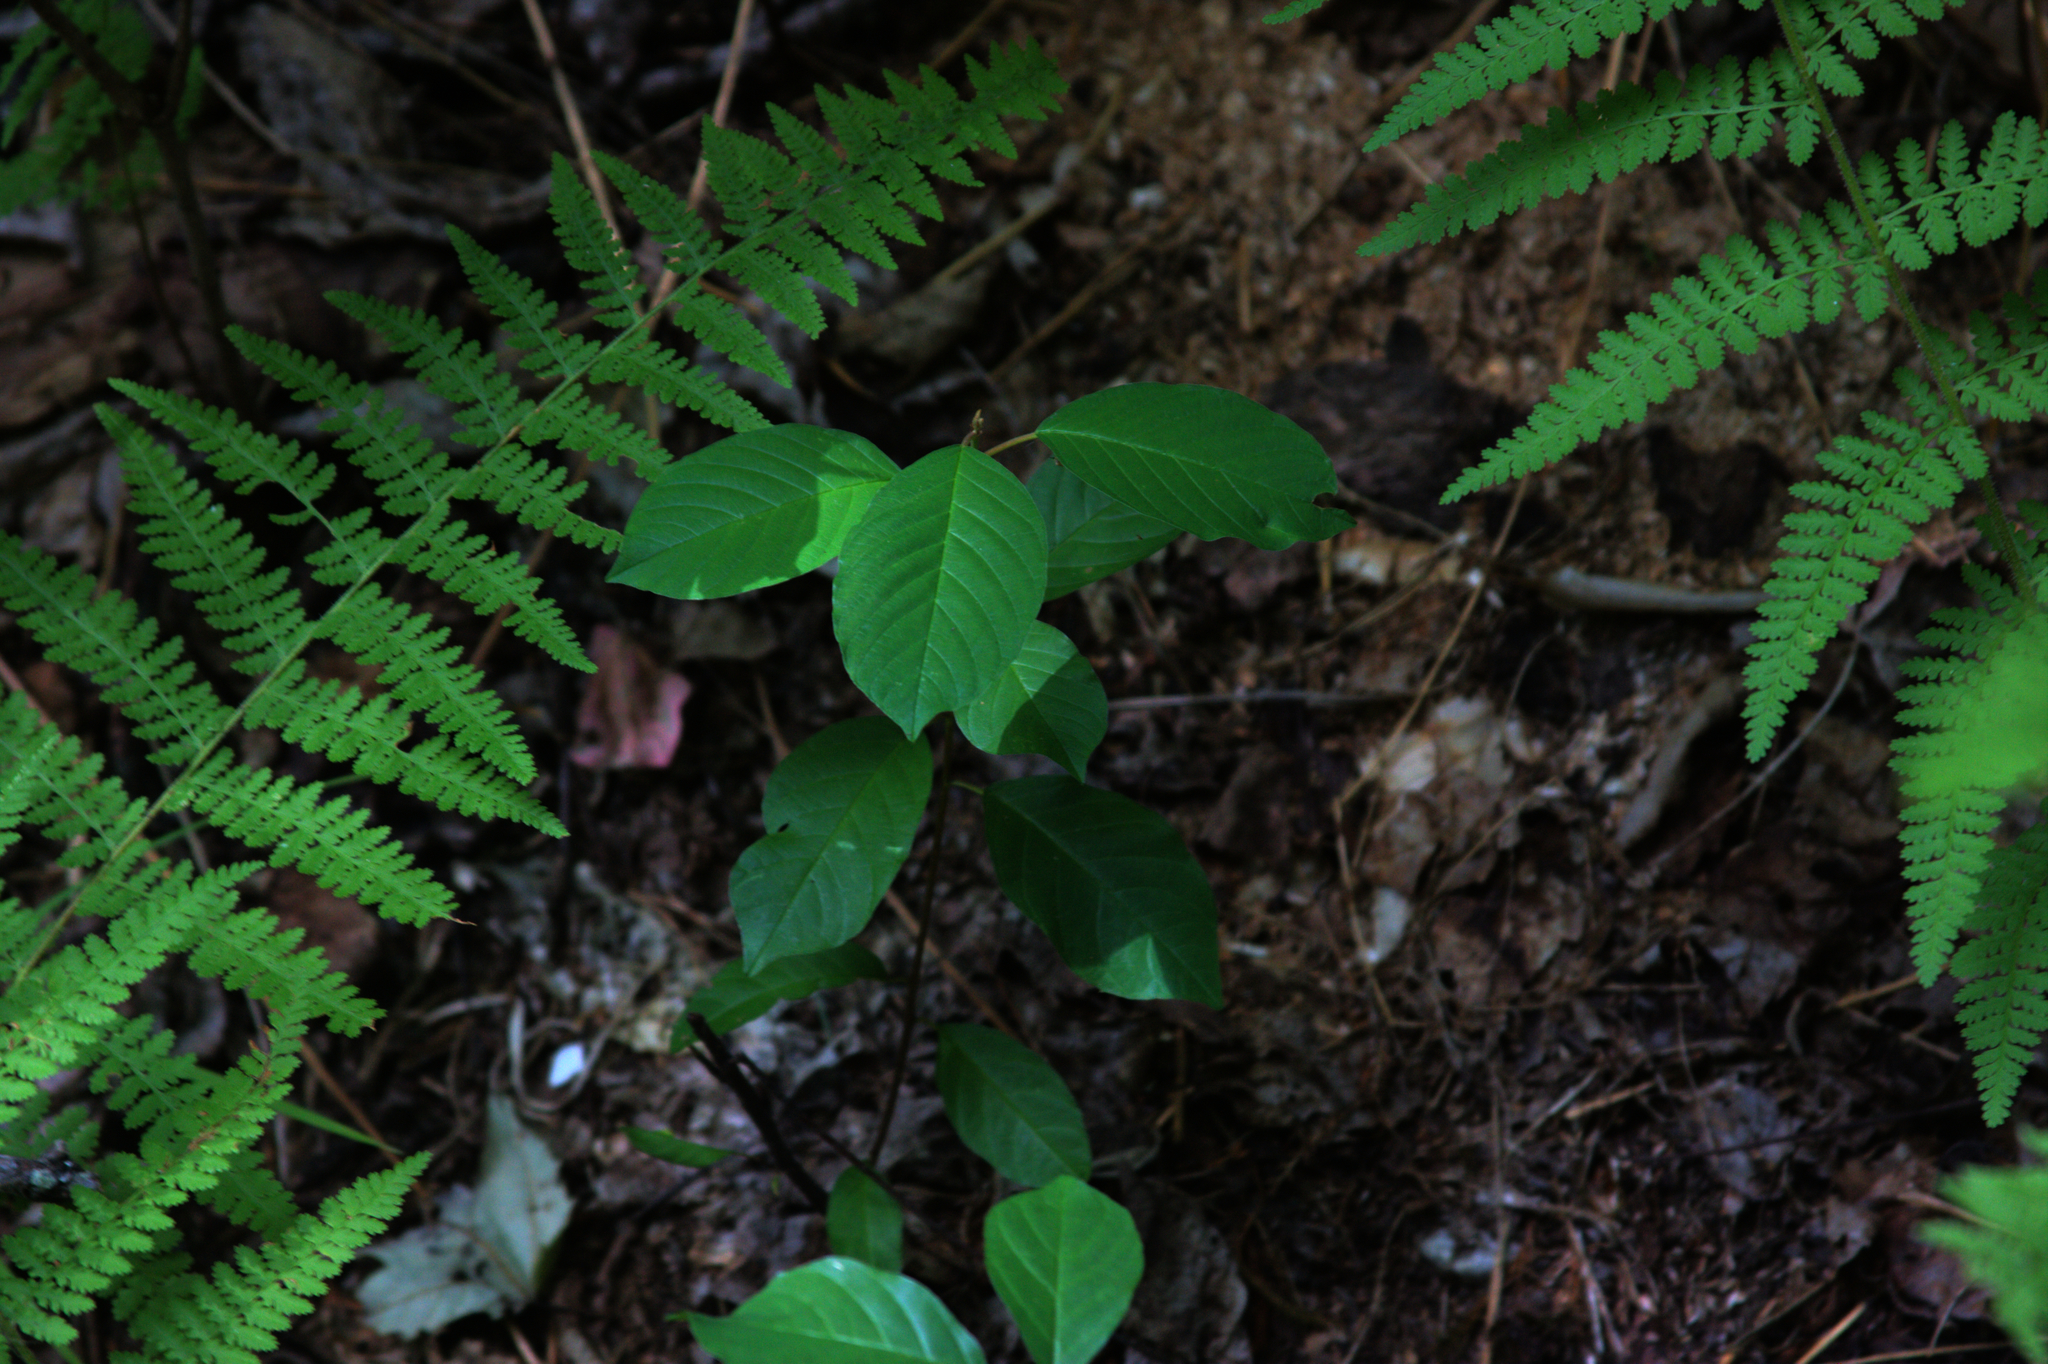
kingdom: Plantae
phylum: Tracheophyta
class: Magnoliopsida
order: Rosales
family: Rhamnaceae
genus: Frangula
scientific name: Frangula alnus
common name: Alder buckthorn
